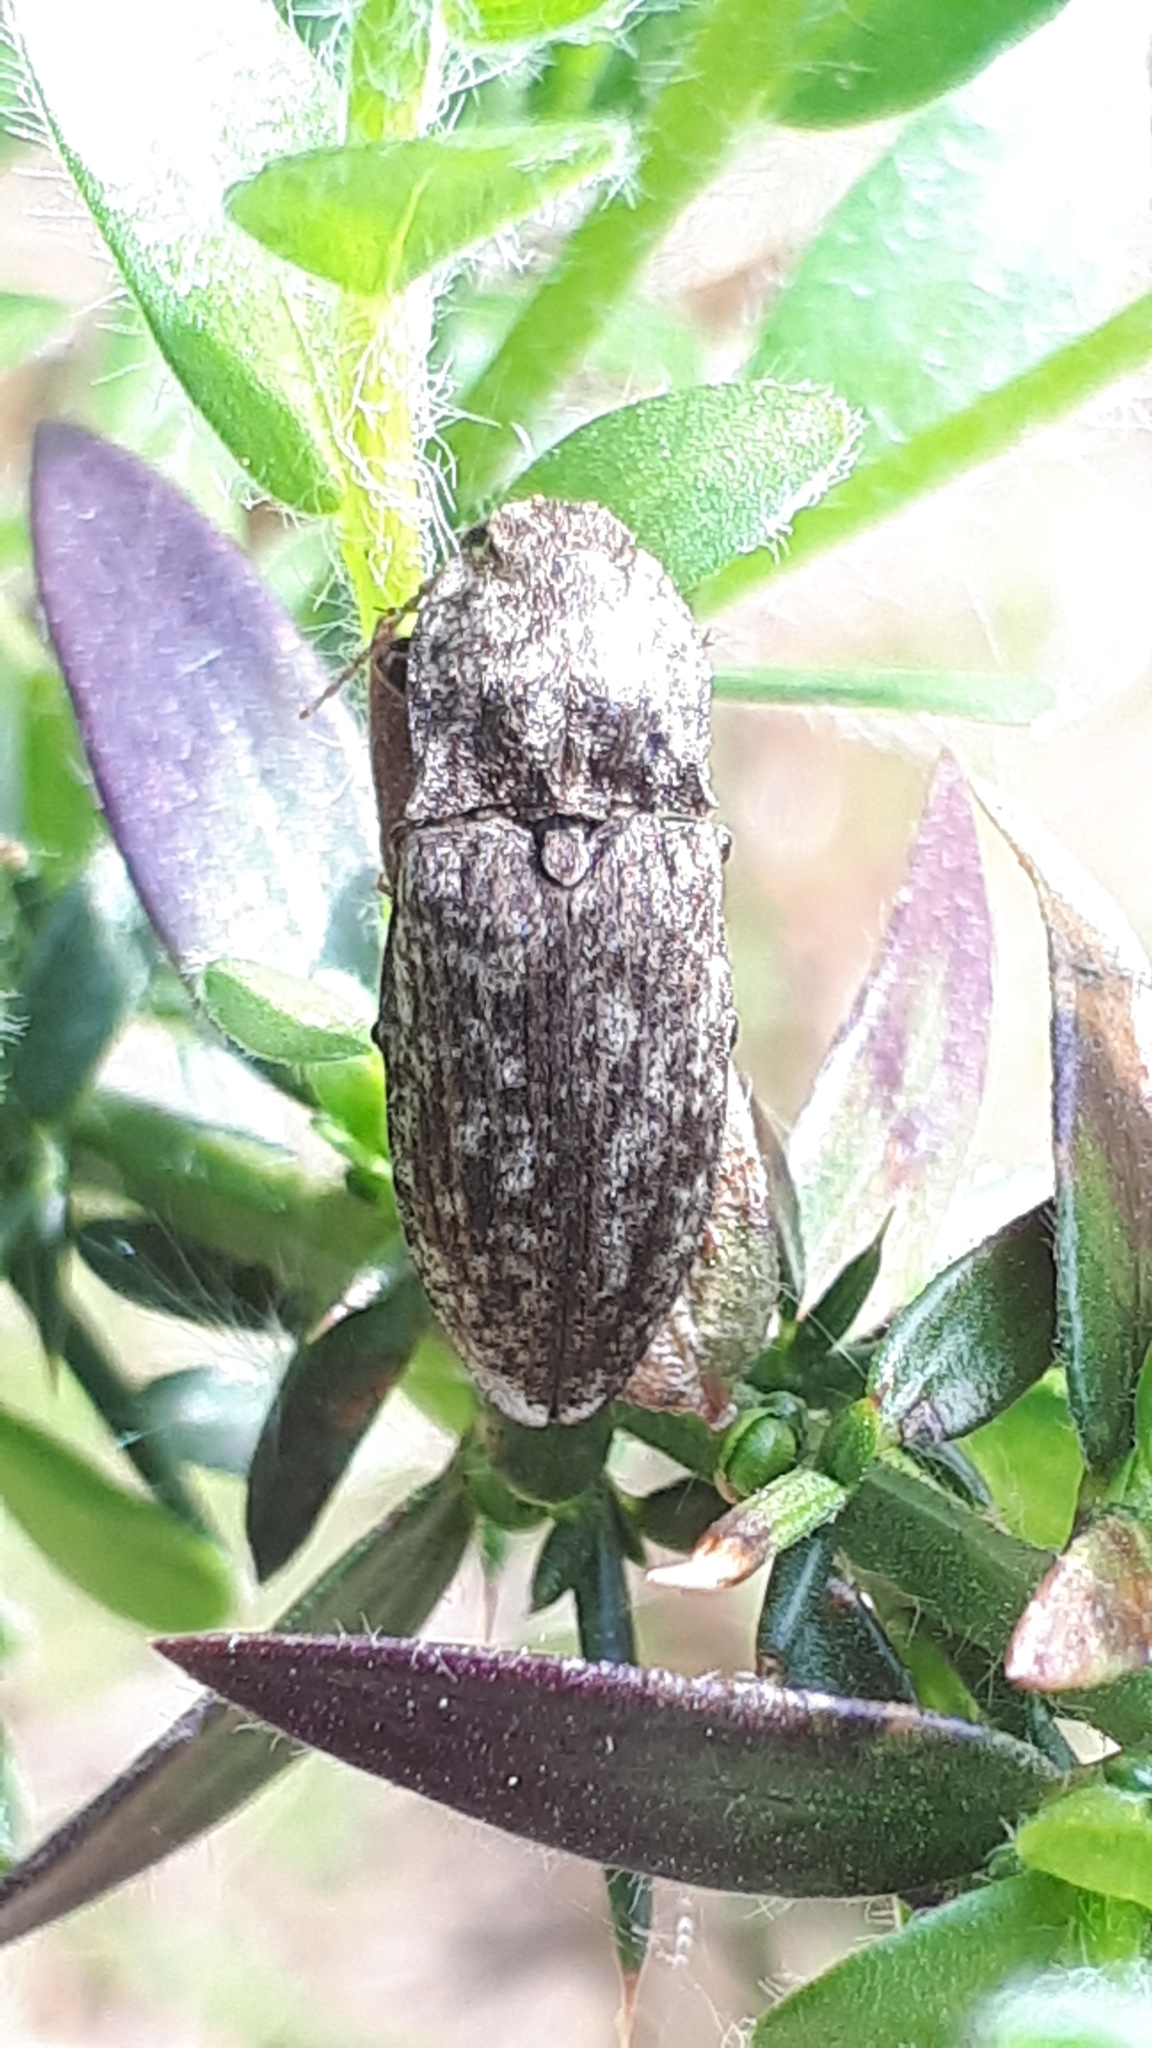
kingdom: Animalia
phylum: Arthropoda
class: Insecta
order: Coleoptera
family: Elateridae
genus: Agrypnus
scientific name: Agrypnus murinus
